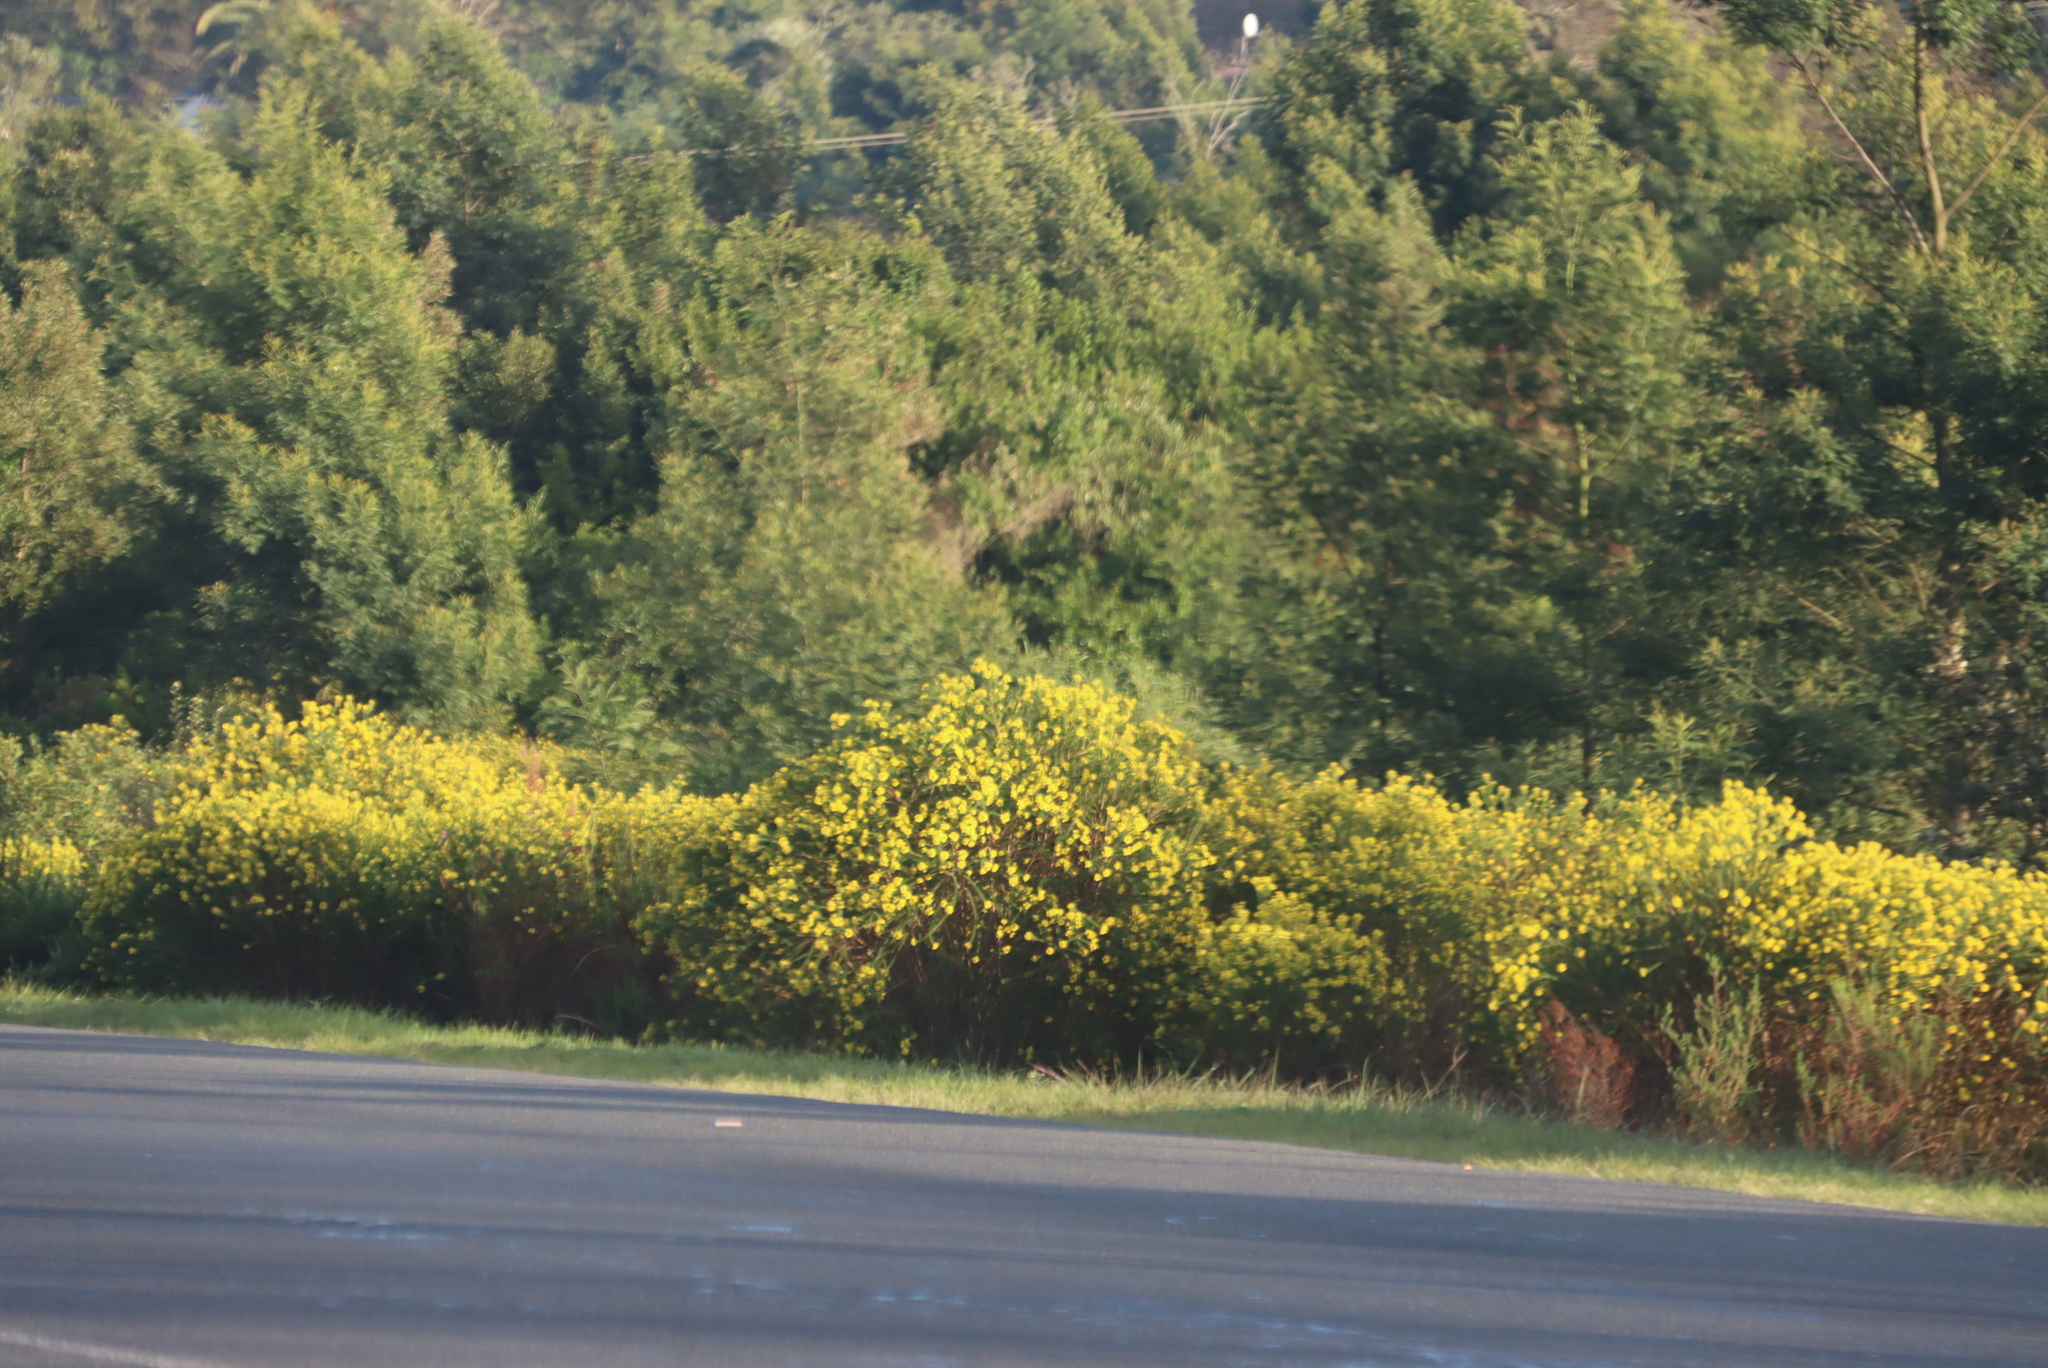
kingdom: Plantae
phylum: Tracheophyta
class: Magnoliopsida
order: Asterales
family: Asteraceae
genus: Euryops
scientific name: Euryops virgineus
